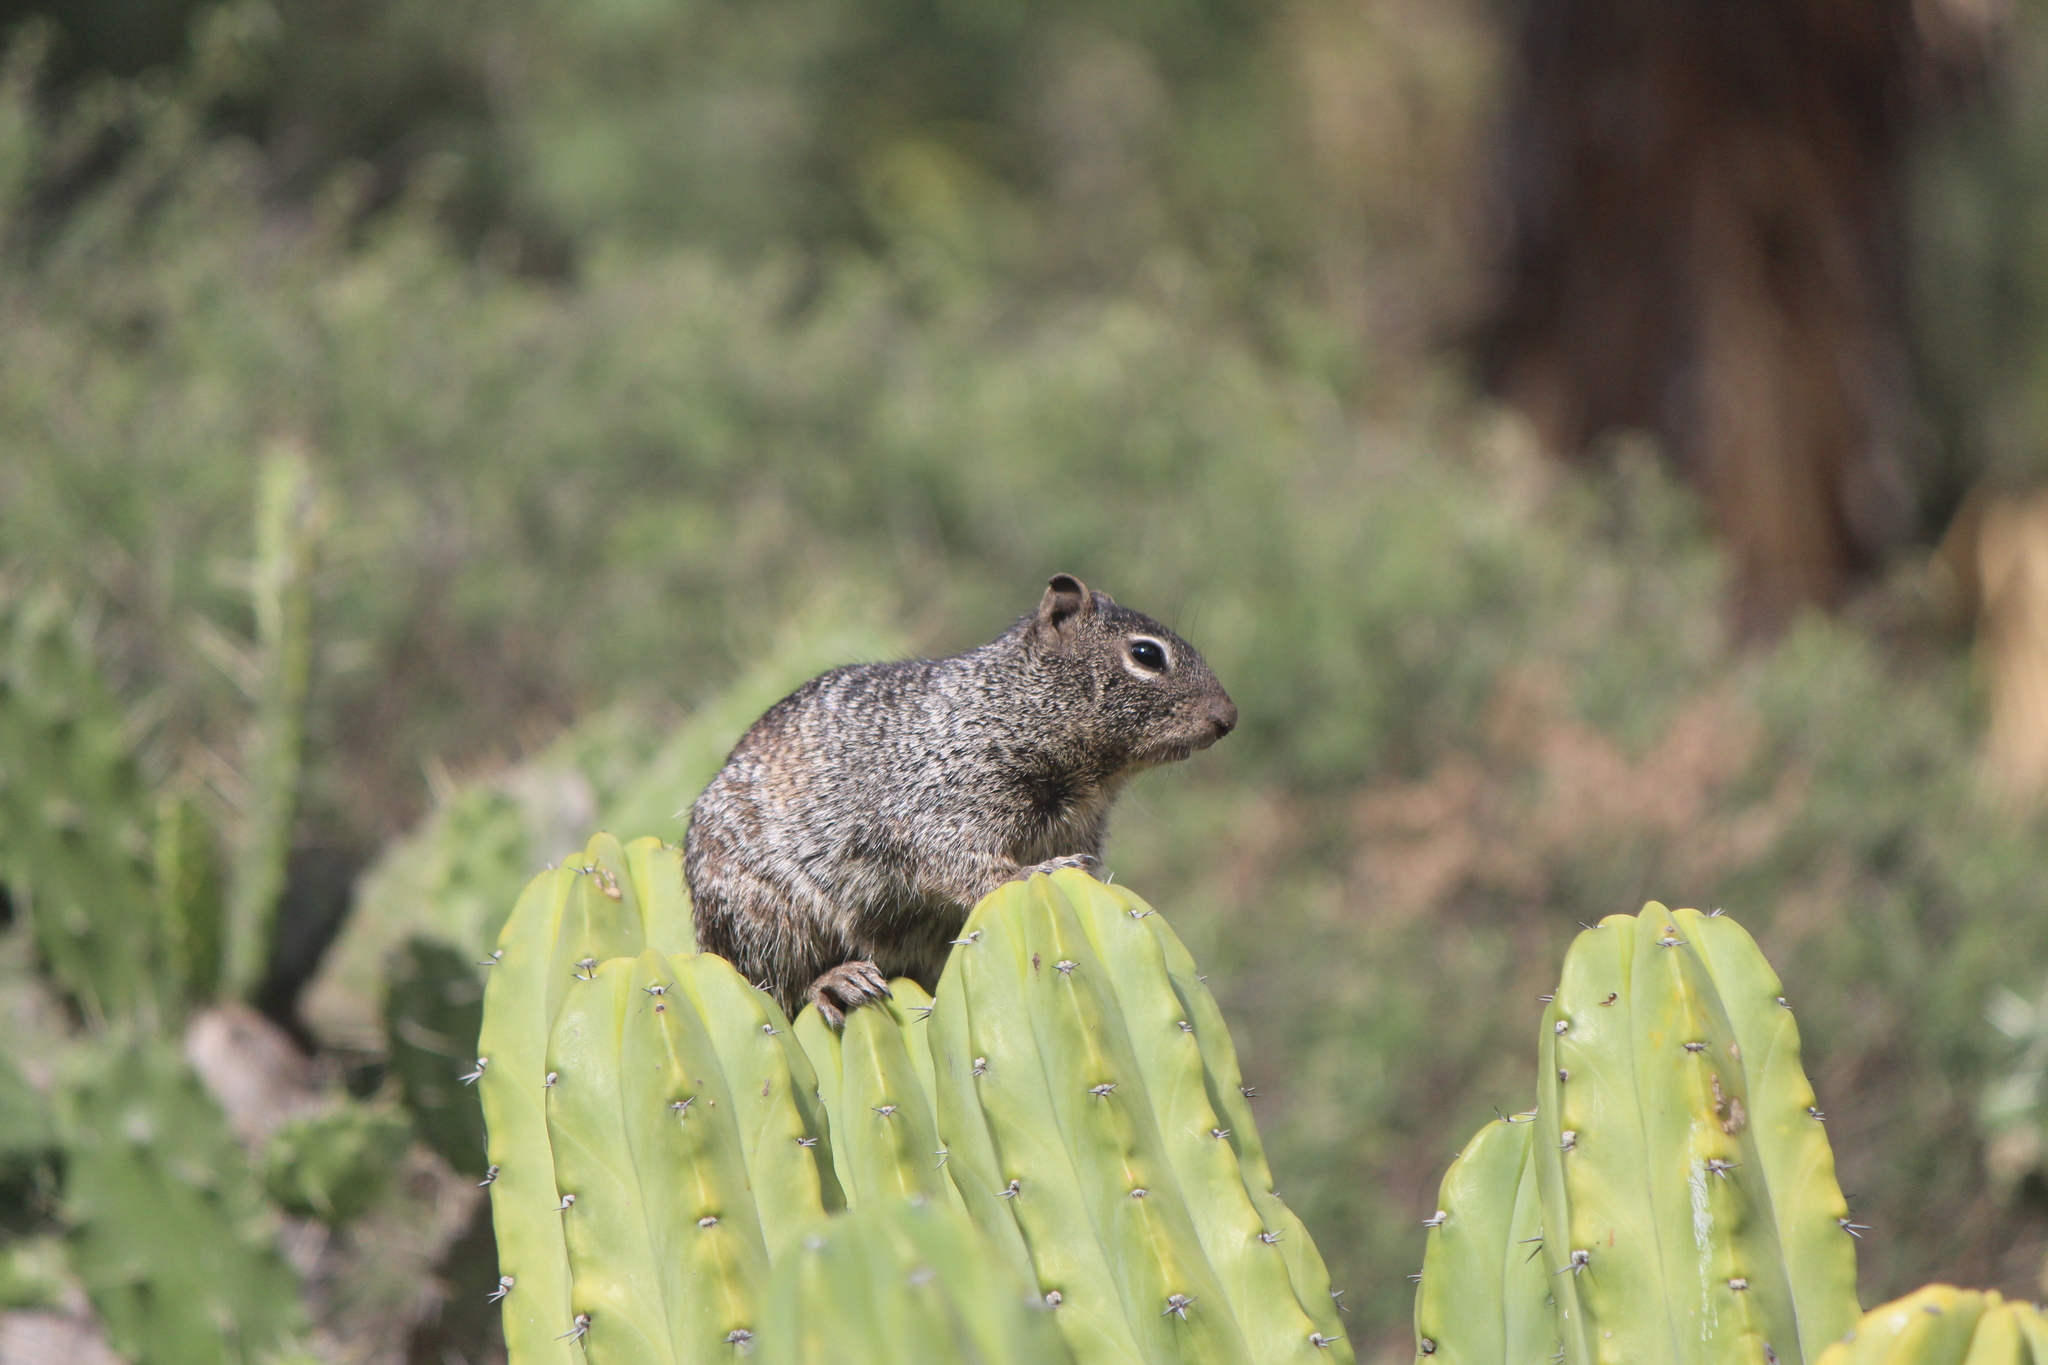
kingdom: Animalia
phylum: Chordata
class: Mammalia
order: Rodentia
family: Sciuridae
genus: Otospermophilus
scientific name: Otospermophilus variegatus
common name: Rock squirrel
